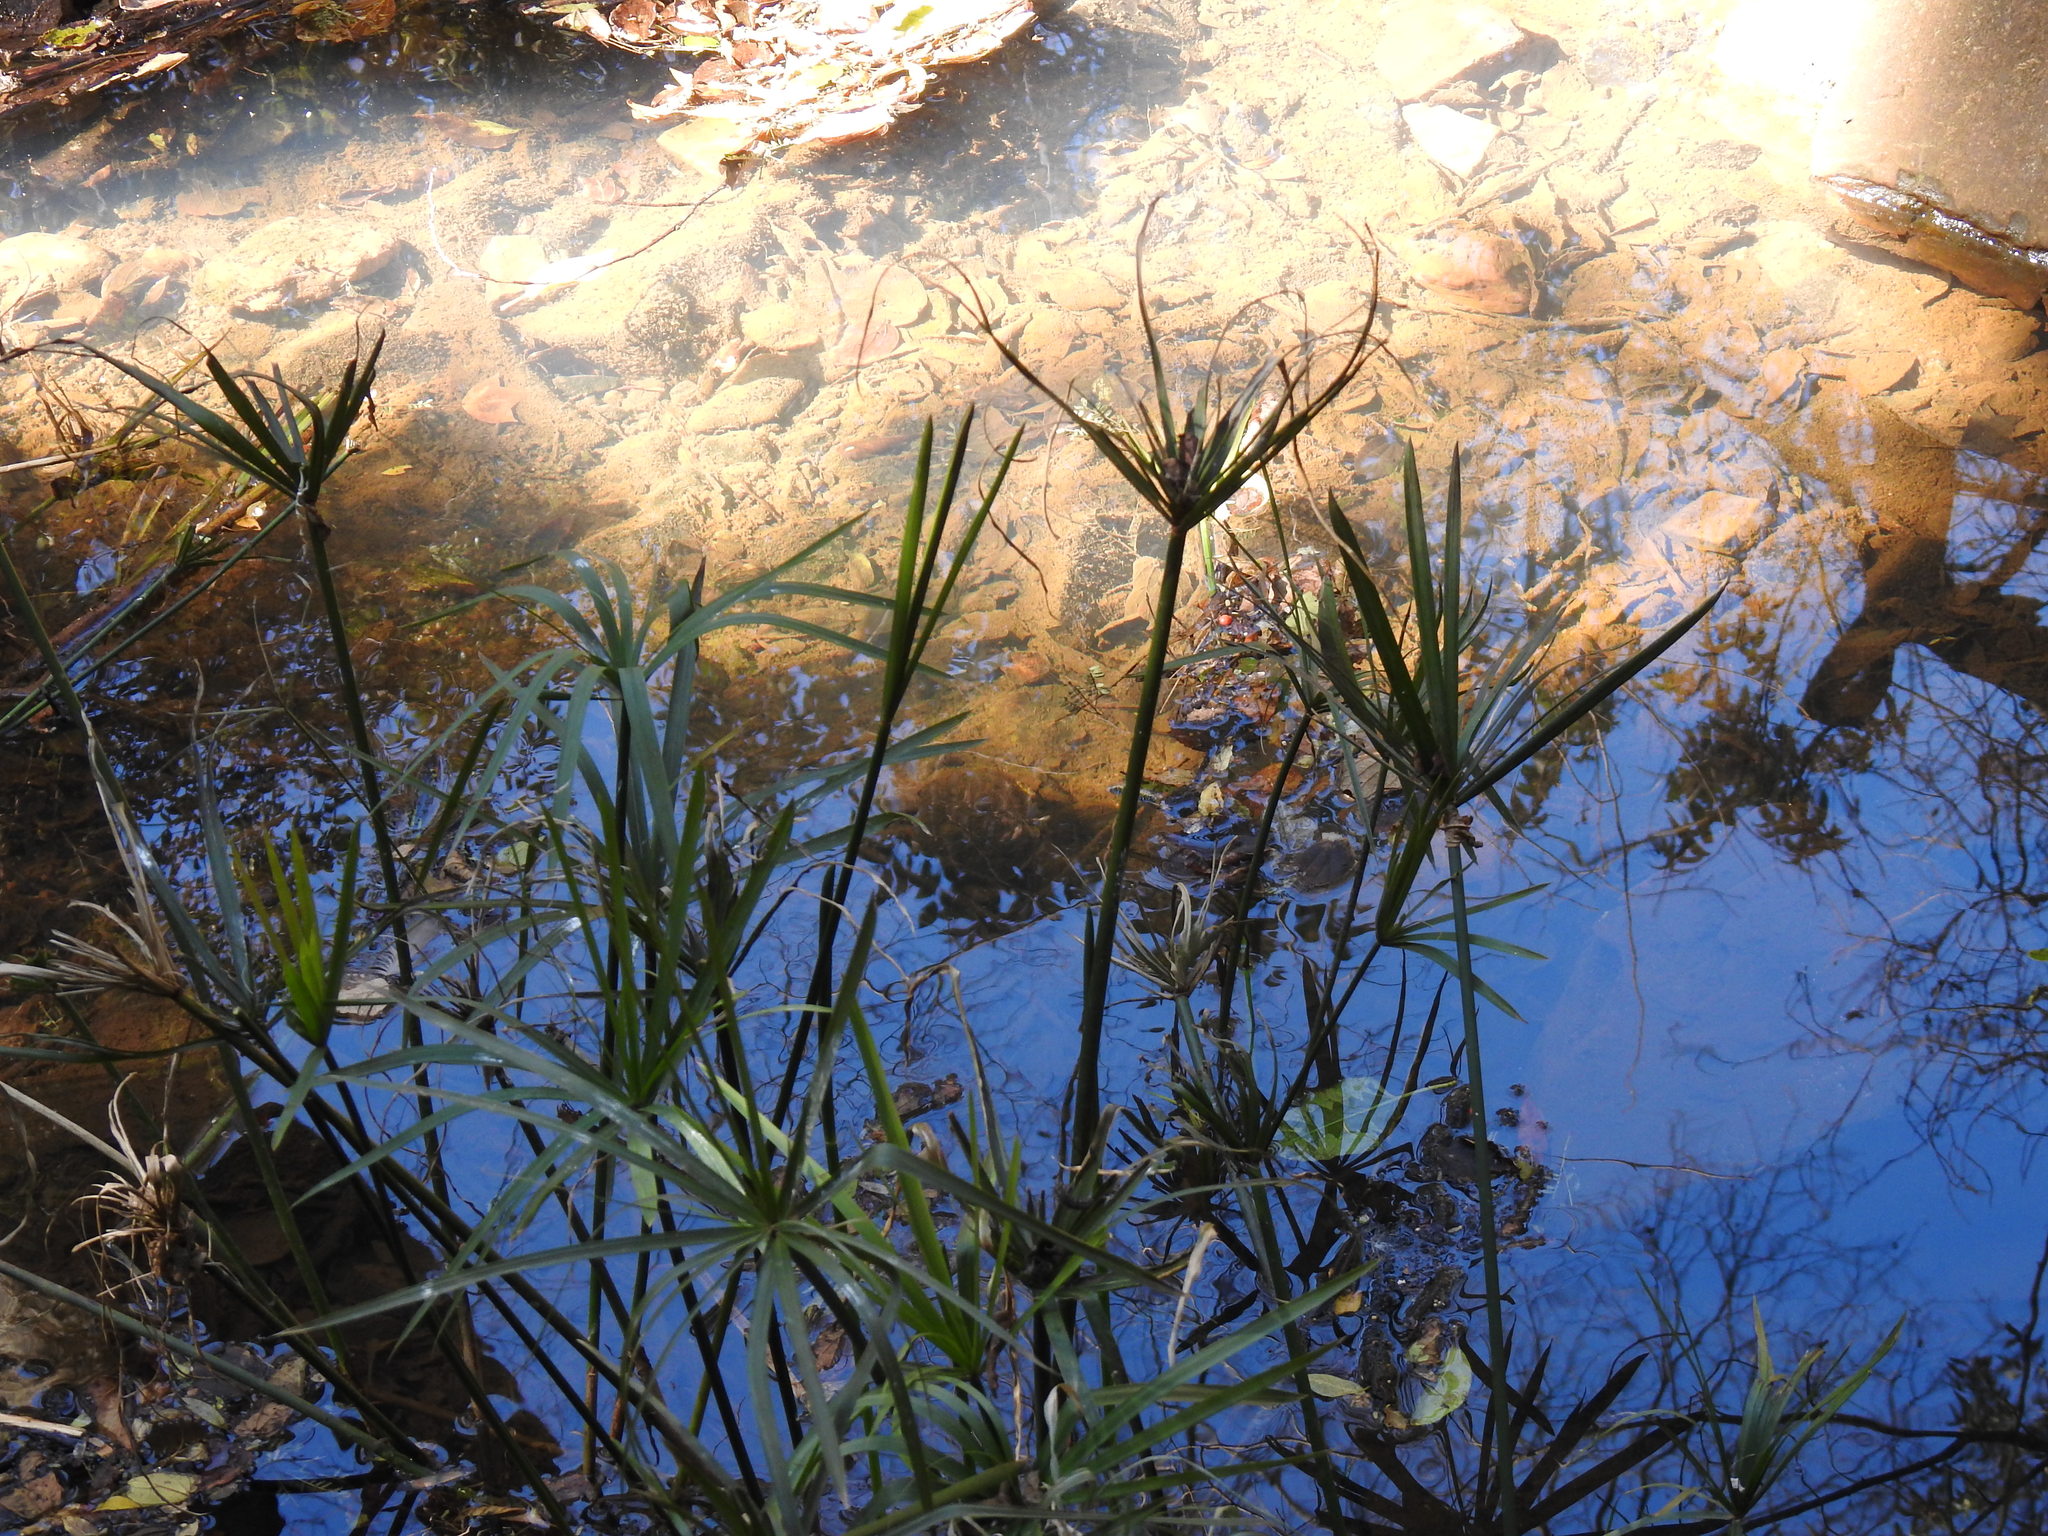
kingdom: Plantae
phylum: Tracheophyta
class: Liliopsida
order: Poales
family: Cyperaceae
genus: Cyperus
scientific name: Cyperus textilis
